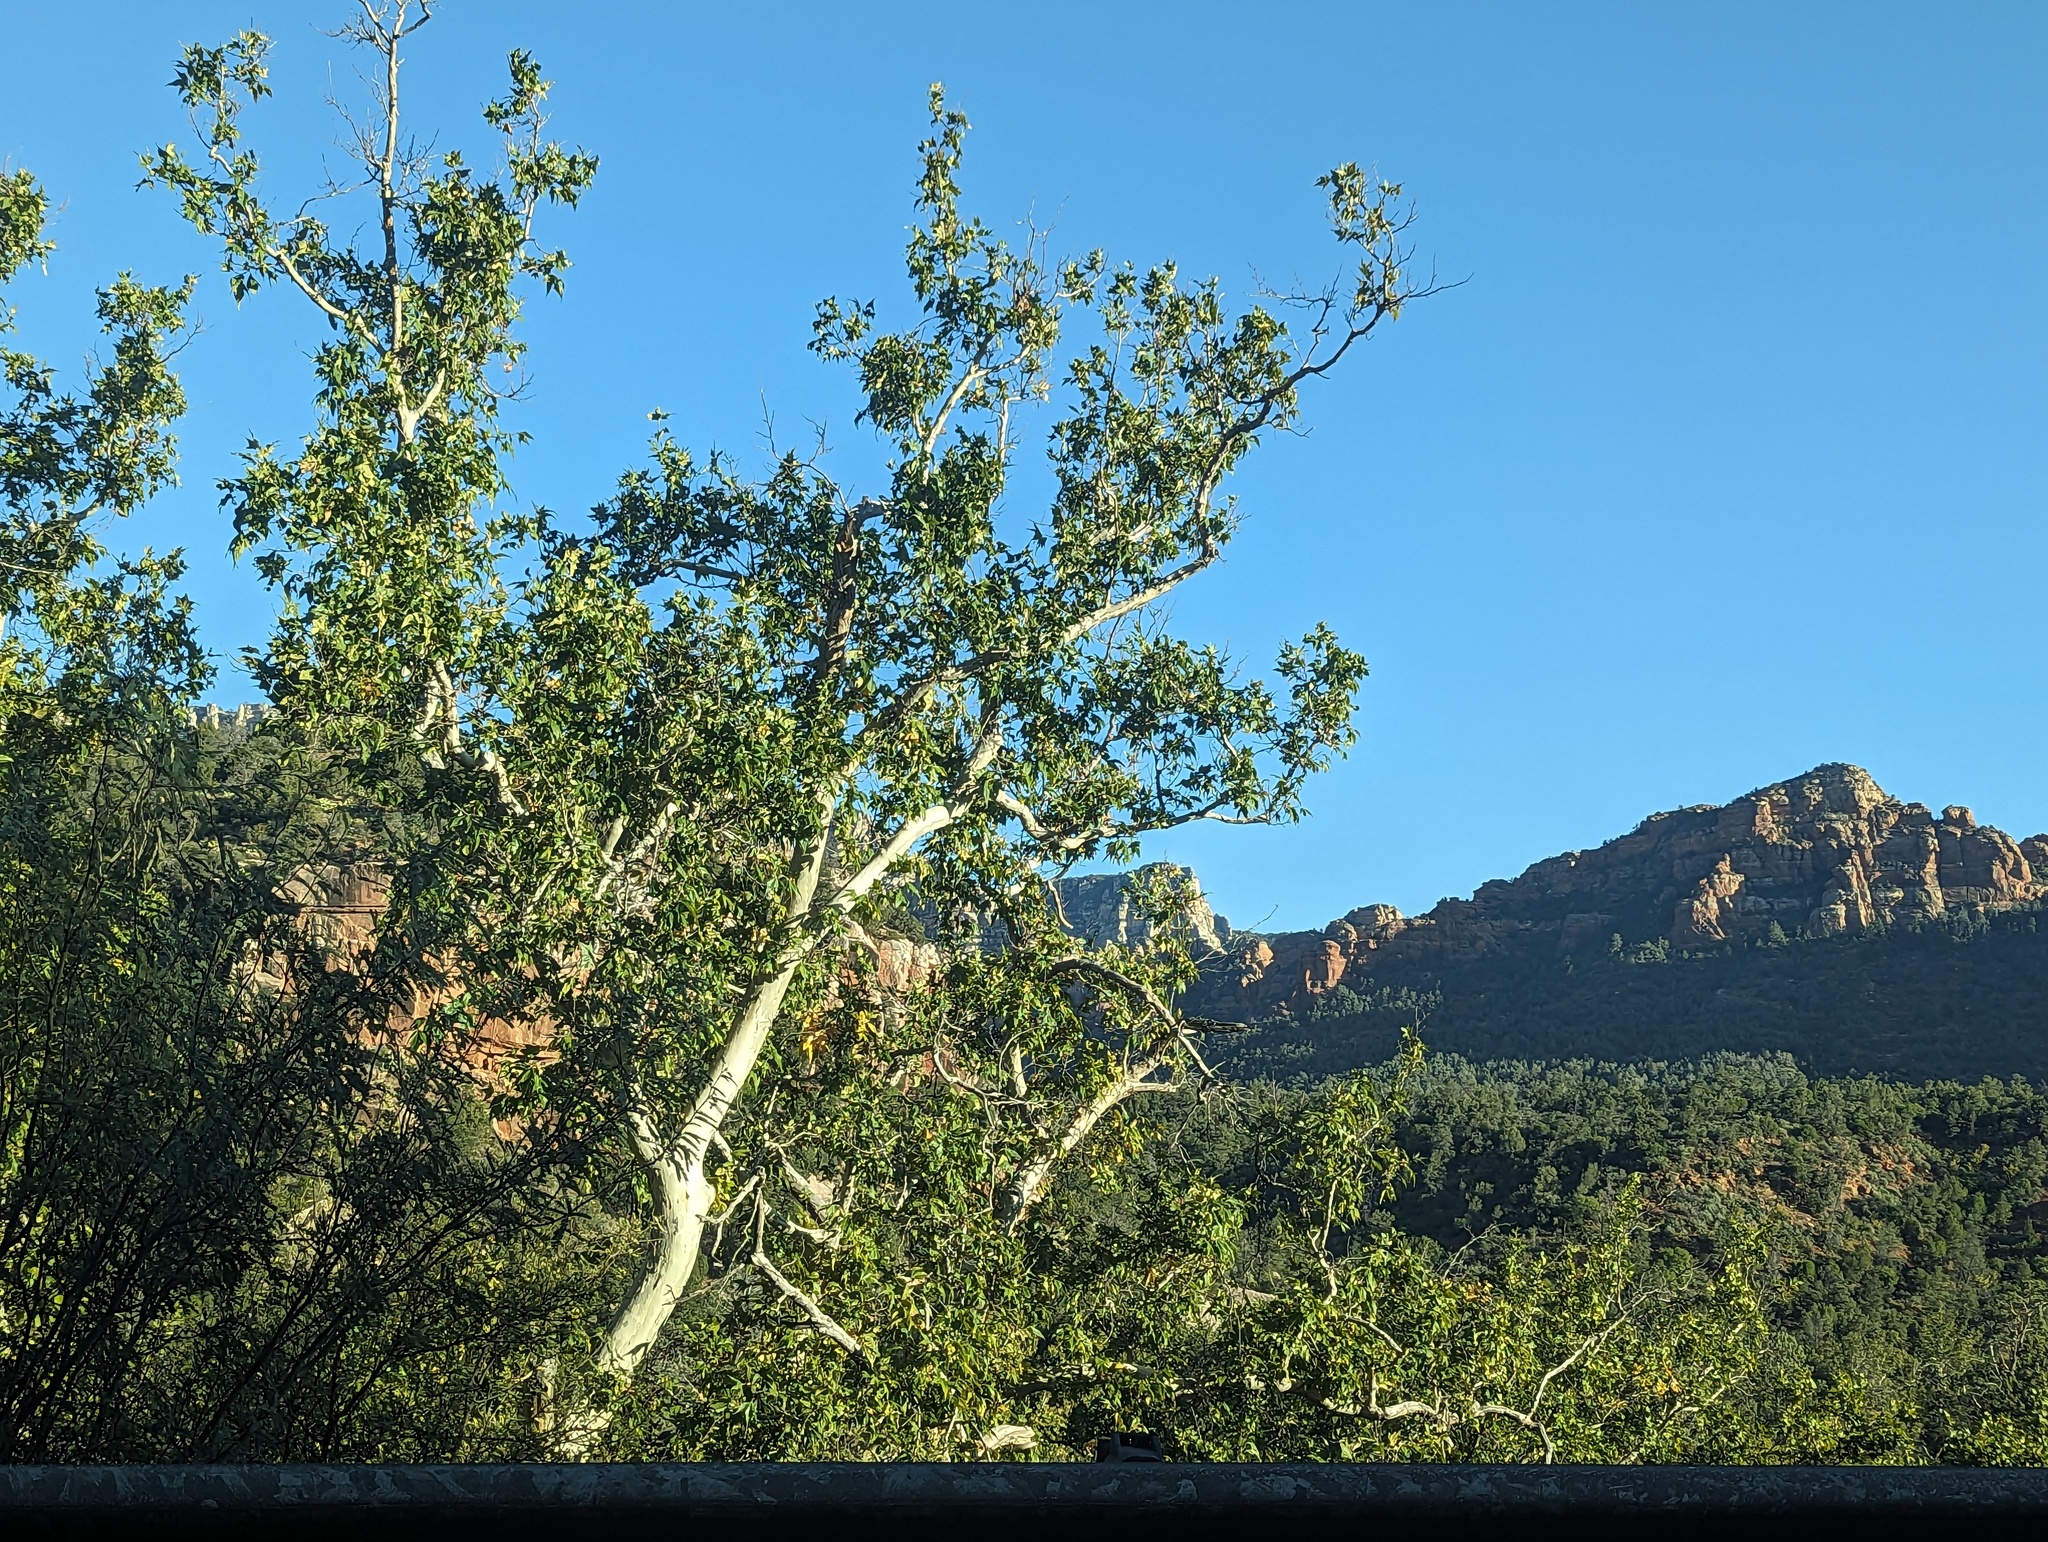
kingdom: Plantae
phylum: Tracheophyta
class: Magnoliopsida
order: Proteales
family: Platanaceae
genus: Platanus
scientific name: Platanus wrightii
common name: Arizona sycamore
